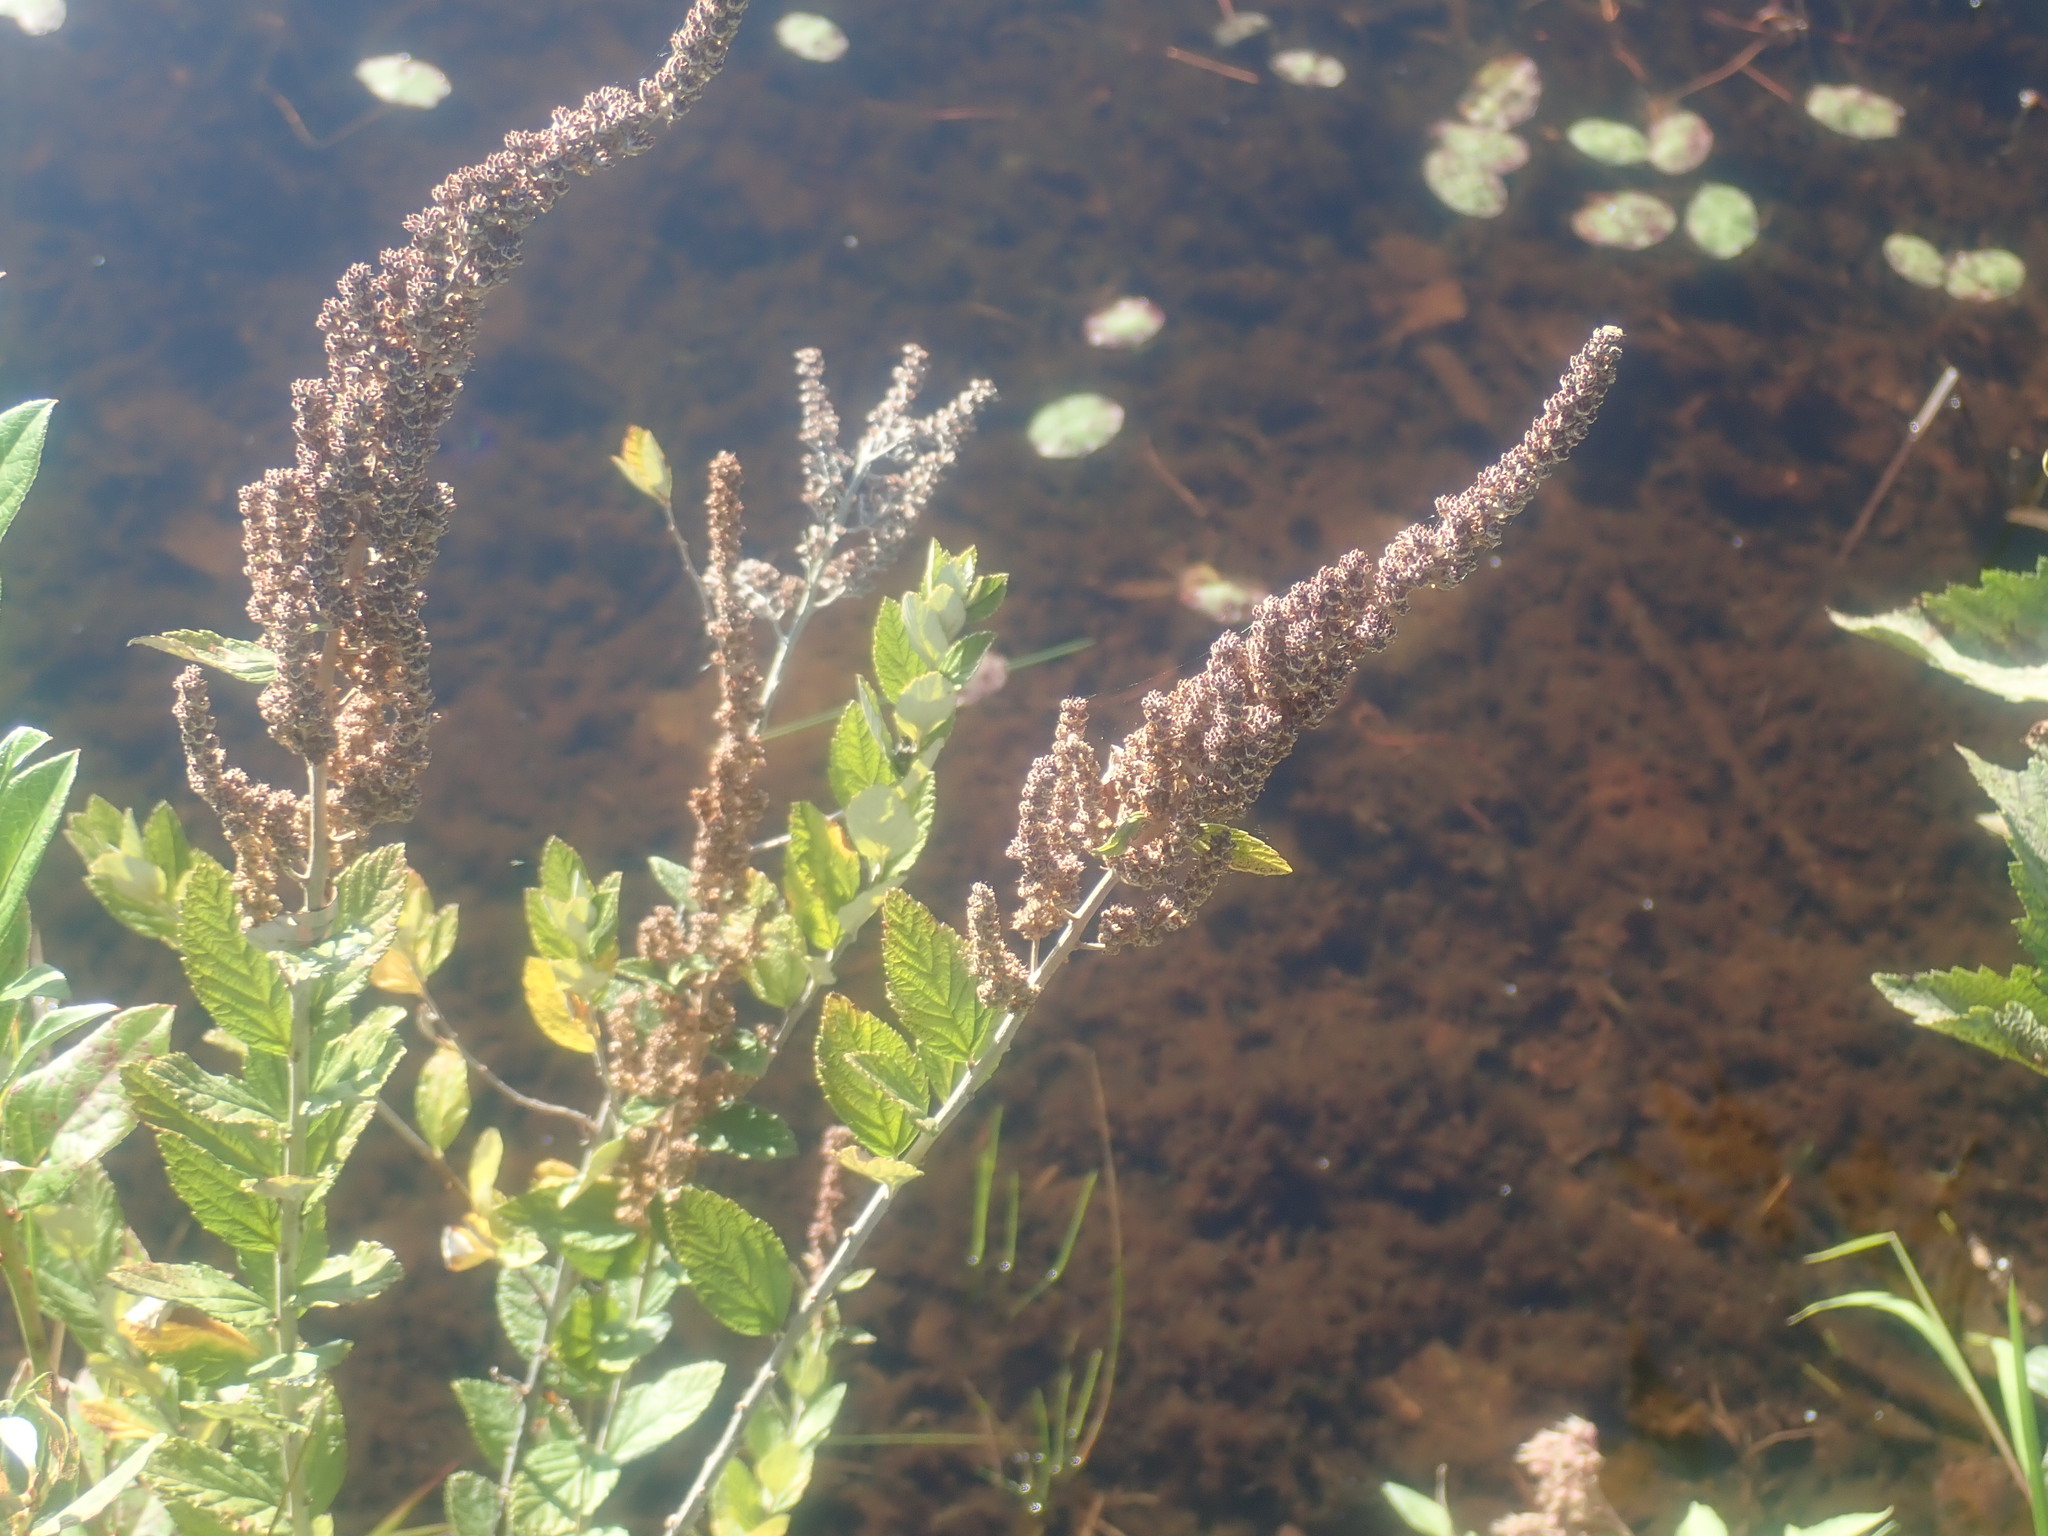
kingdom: Plantae
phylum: Tracheophyta
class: Magnoliopsida
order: Rosales
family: Rosaceae
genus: Spiraea
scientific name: Spiraea tomentosa
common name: Hardhack
